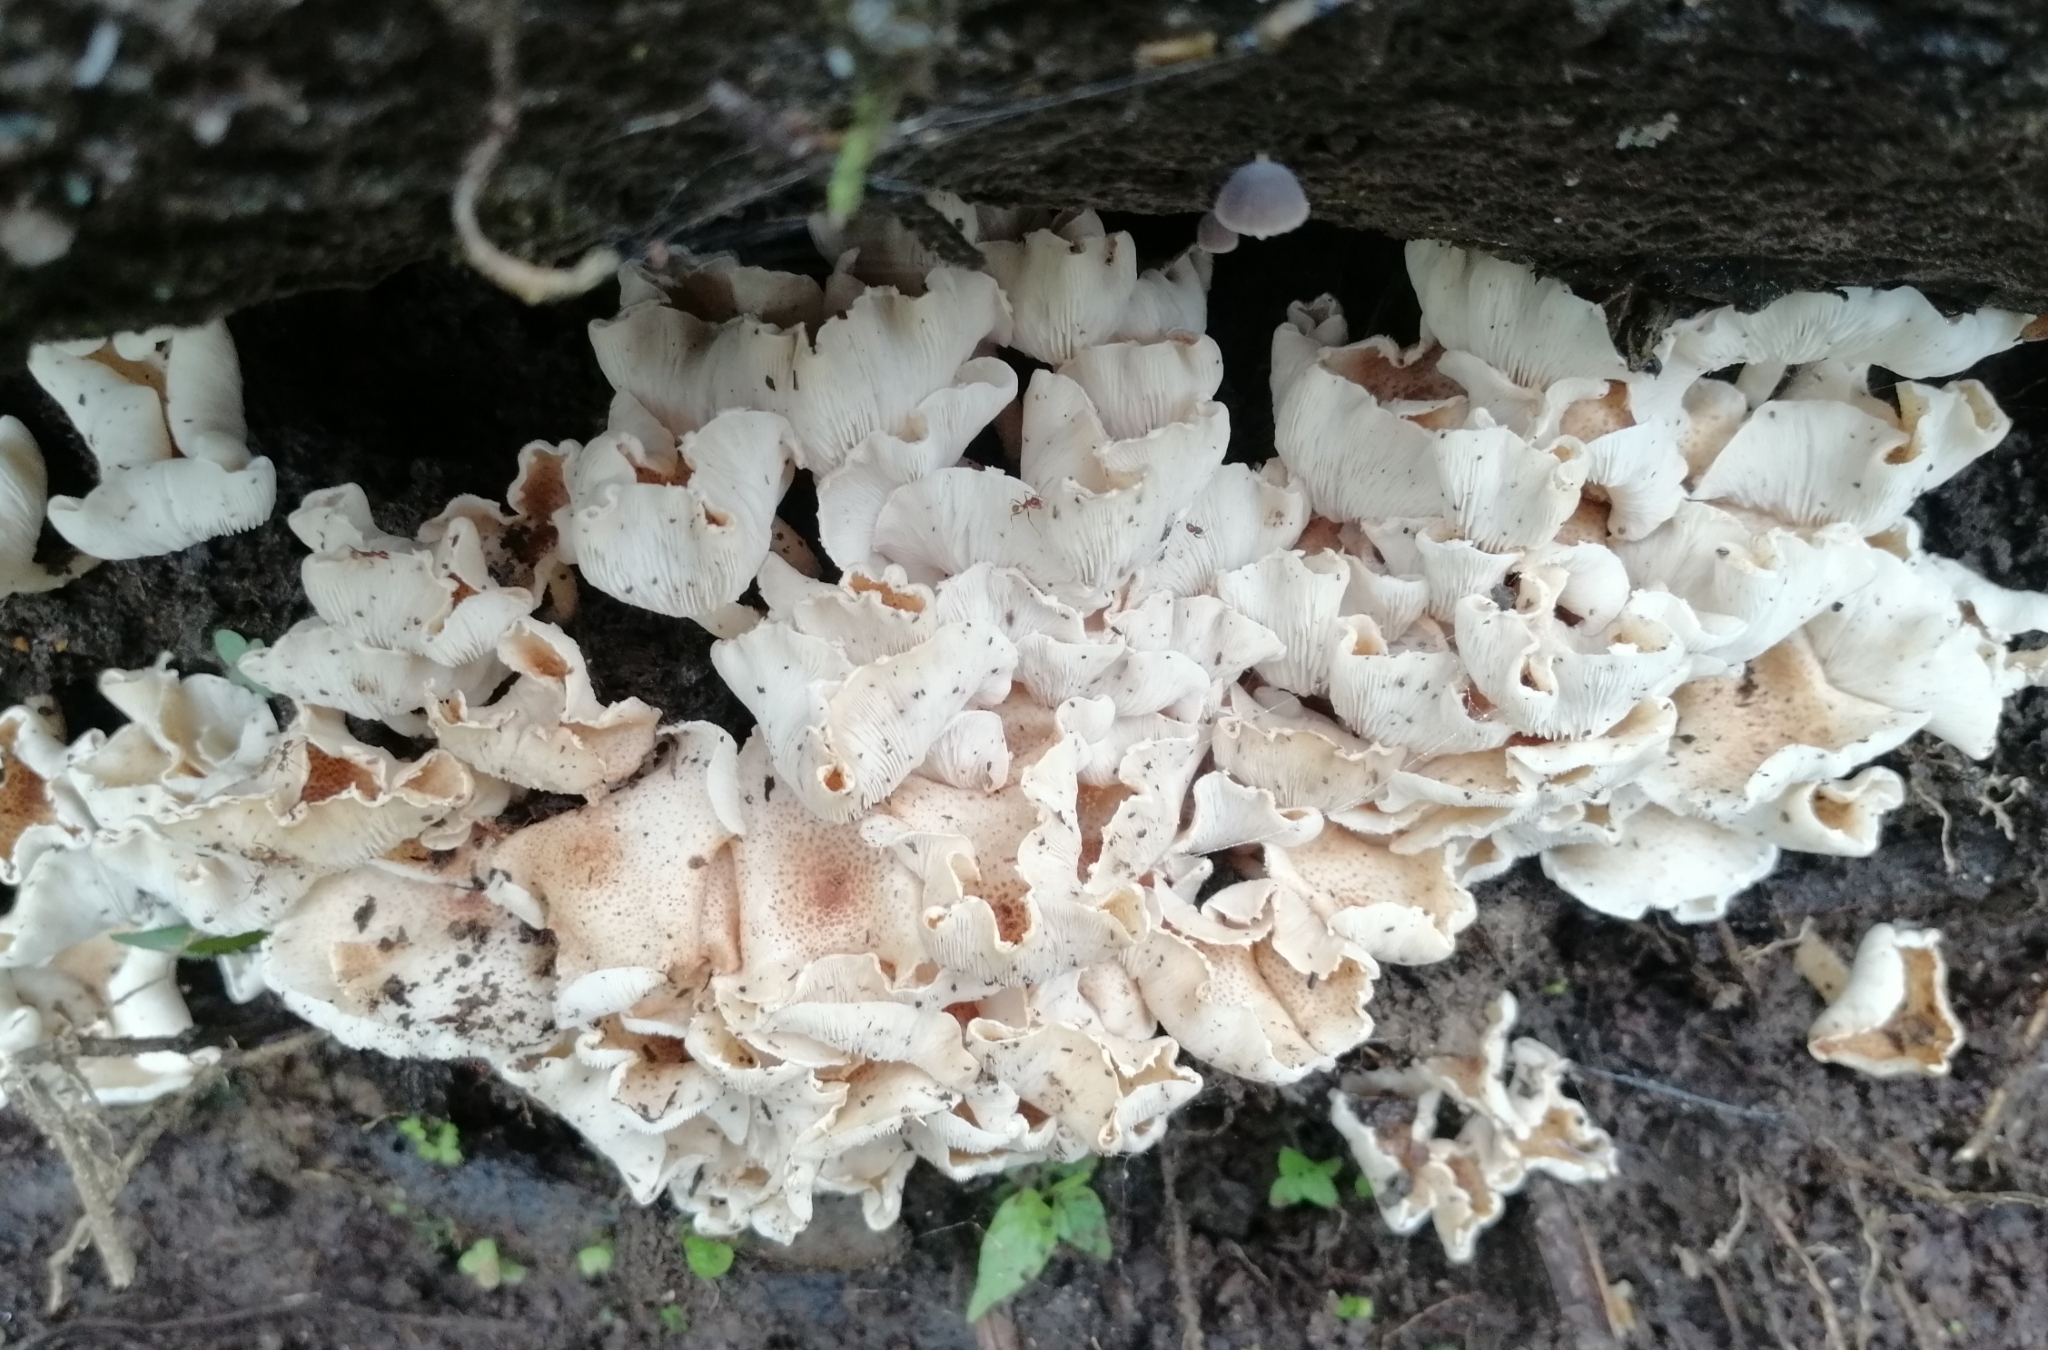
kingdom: Fungi
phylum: Basidiomycota
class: Agaricomycetes
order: Agaricales
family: Agaricaceae
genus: Ripartitella
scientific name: Ripartitella brasiliensis
